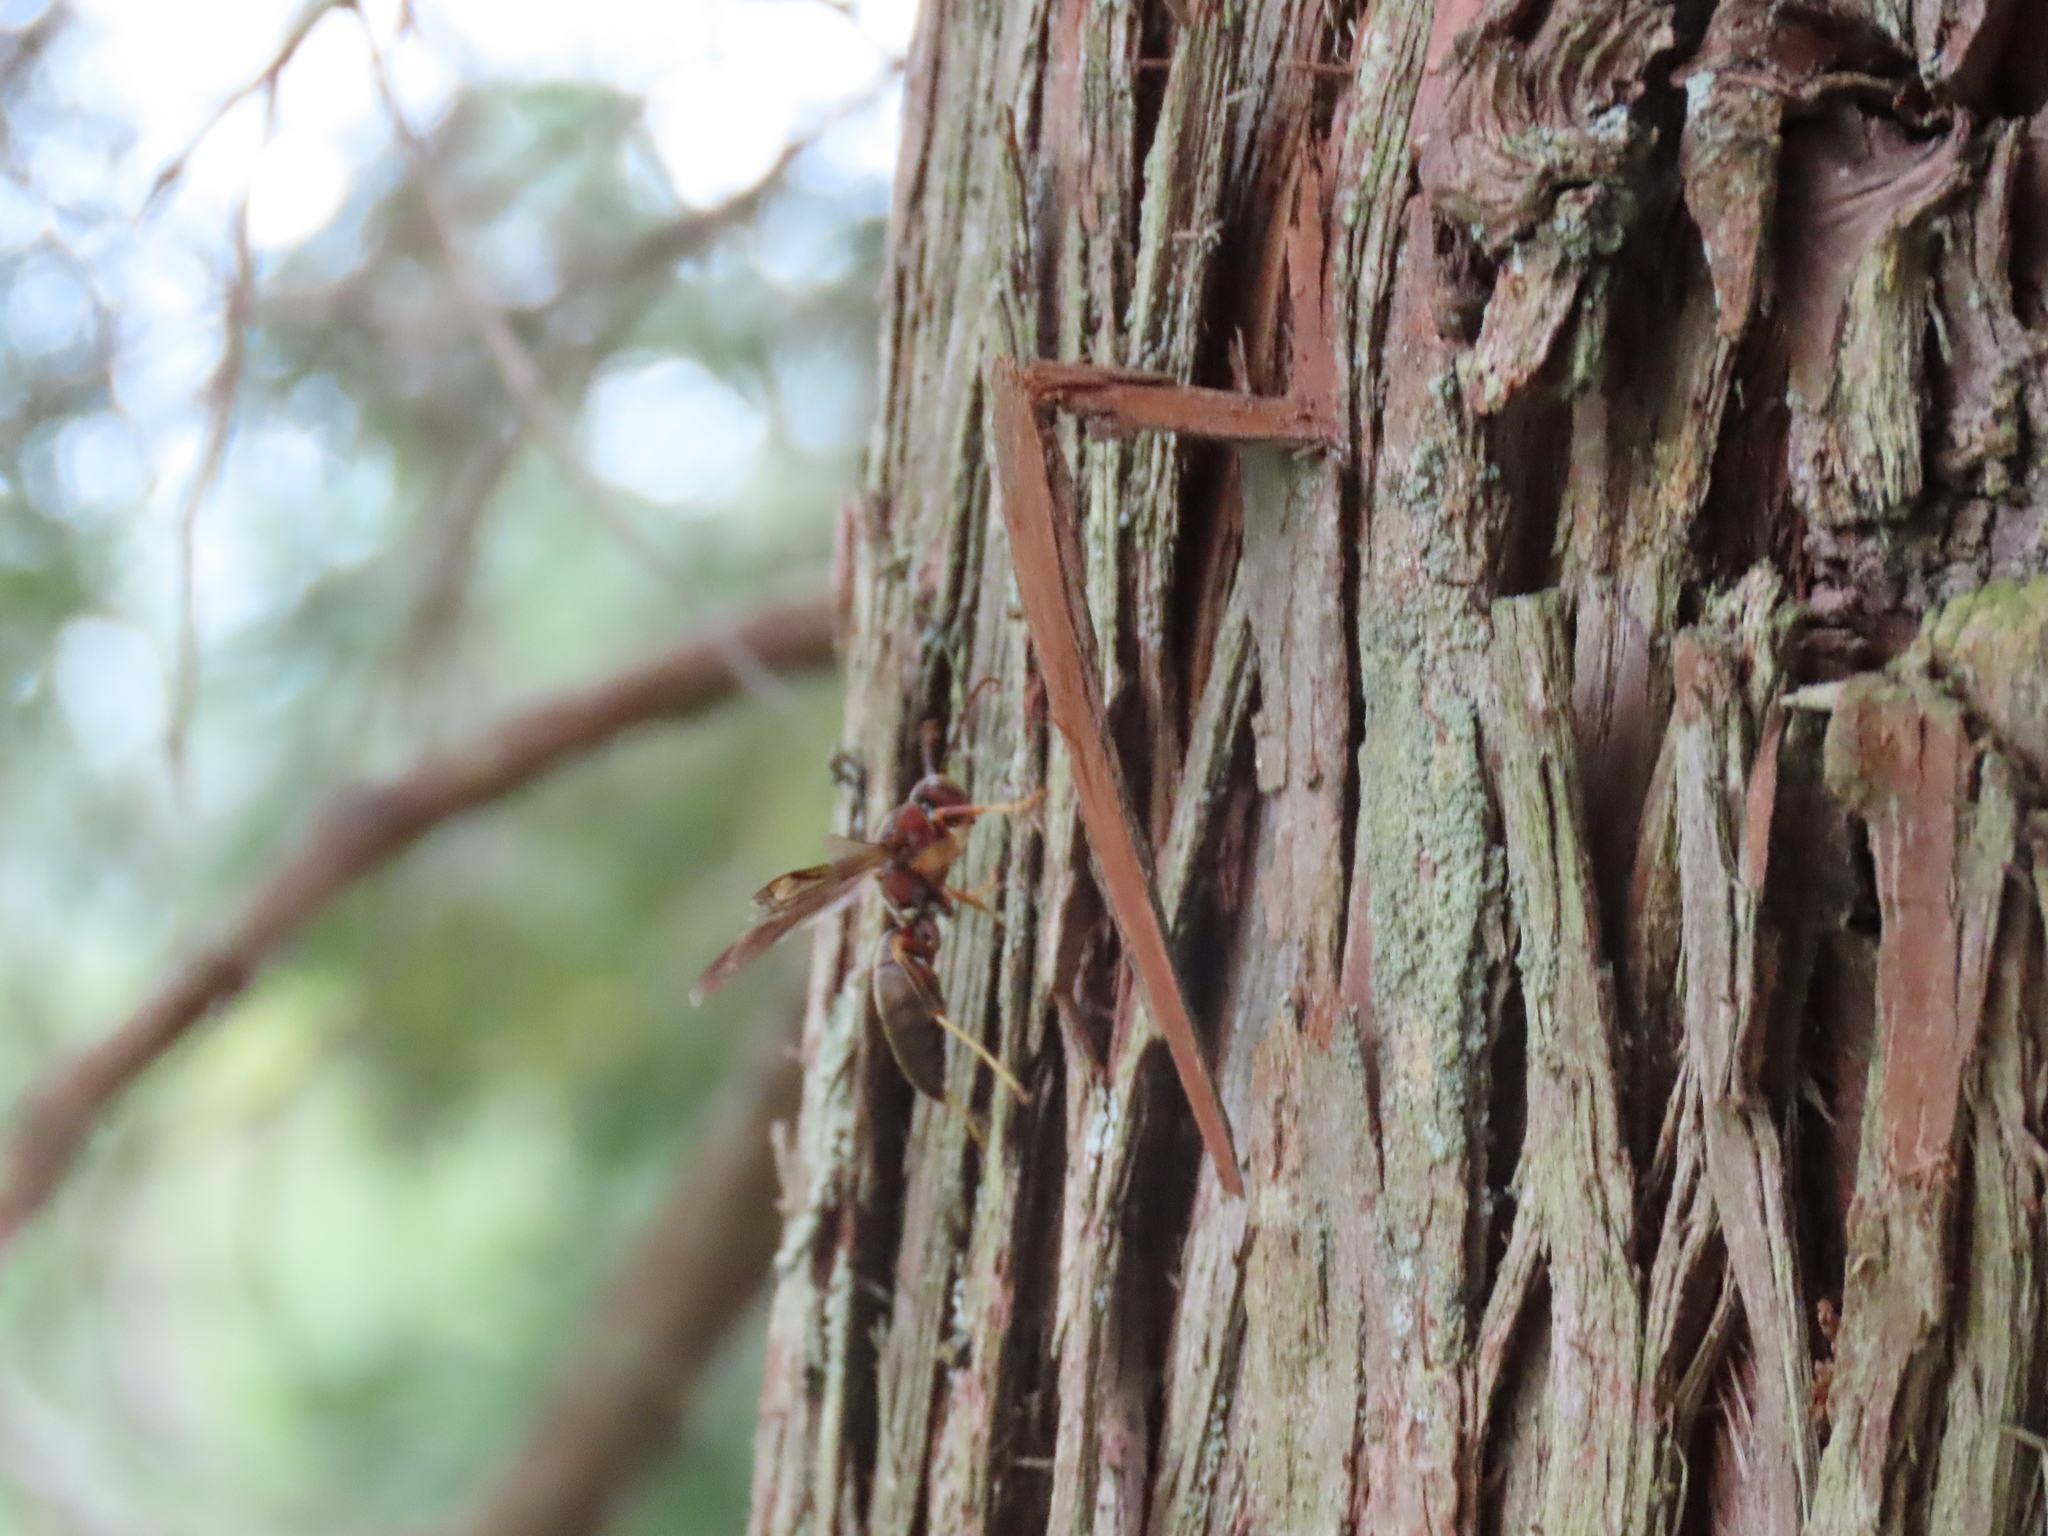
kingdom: Animalia
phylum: Arthropoda
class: Insecta
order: Hymenoptera
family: Eumenidae
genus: Polistes
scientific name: Polistes metricus
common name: Metric paper wasp
